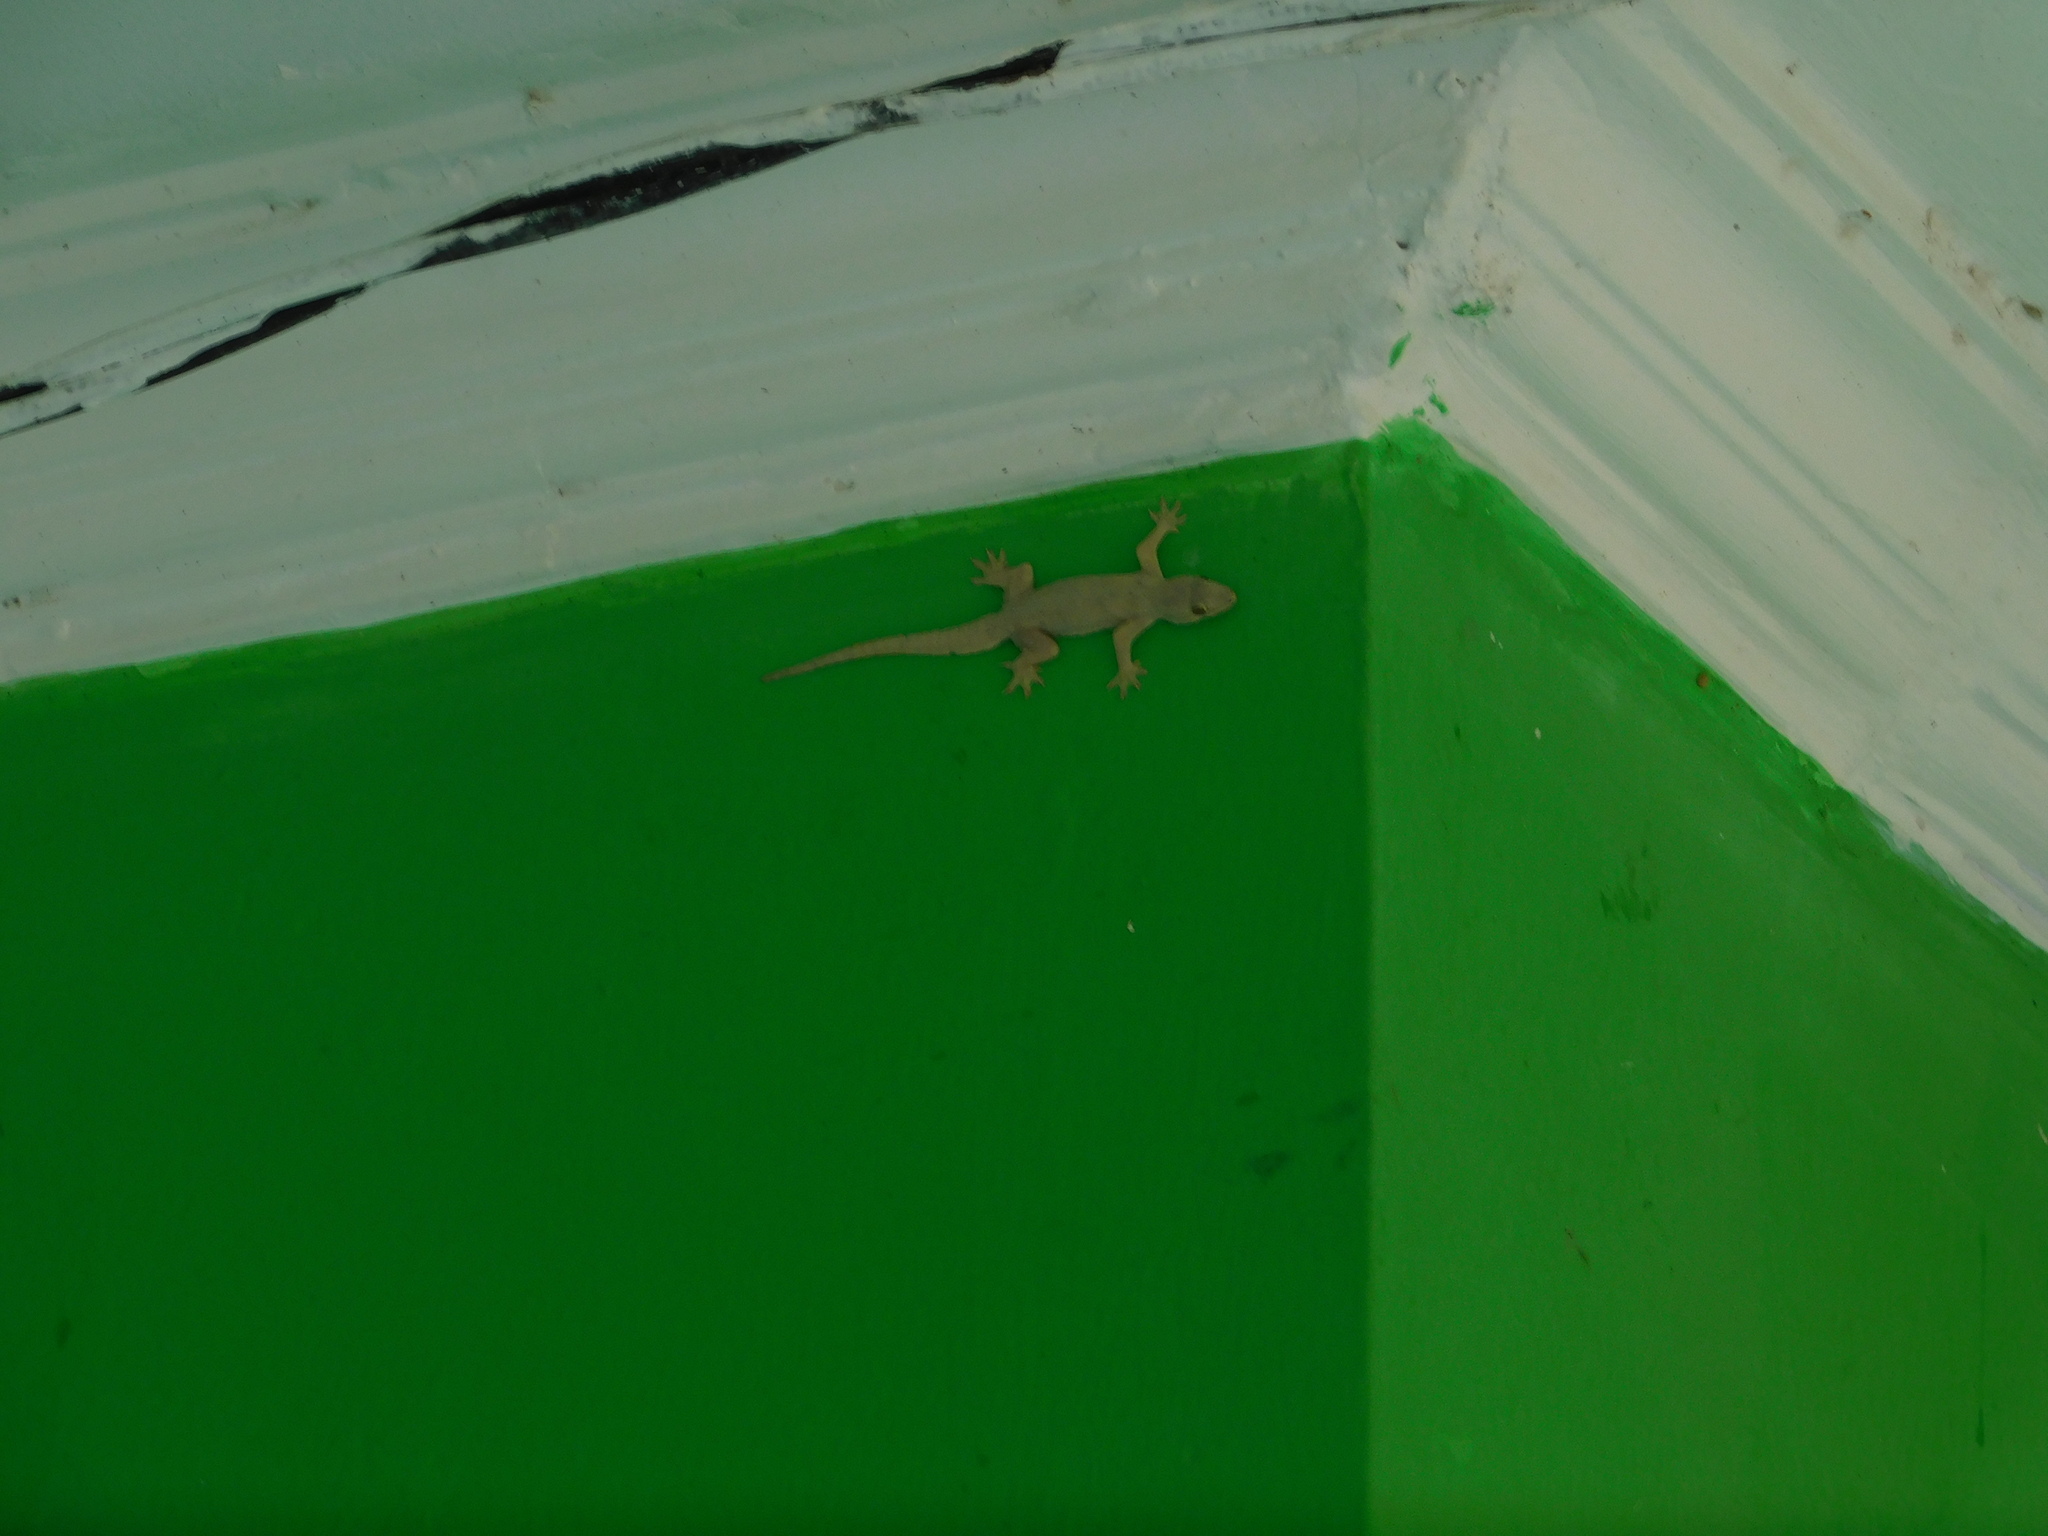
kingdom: Animalia
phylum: Chordata
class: Squamata
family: Gekkonidae
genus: Hemidactylus
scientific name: Hemidactylus platyurus
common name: Flat-tailed house gecko
